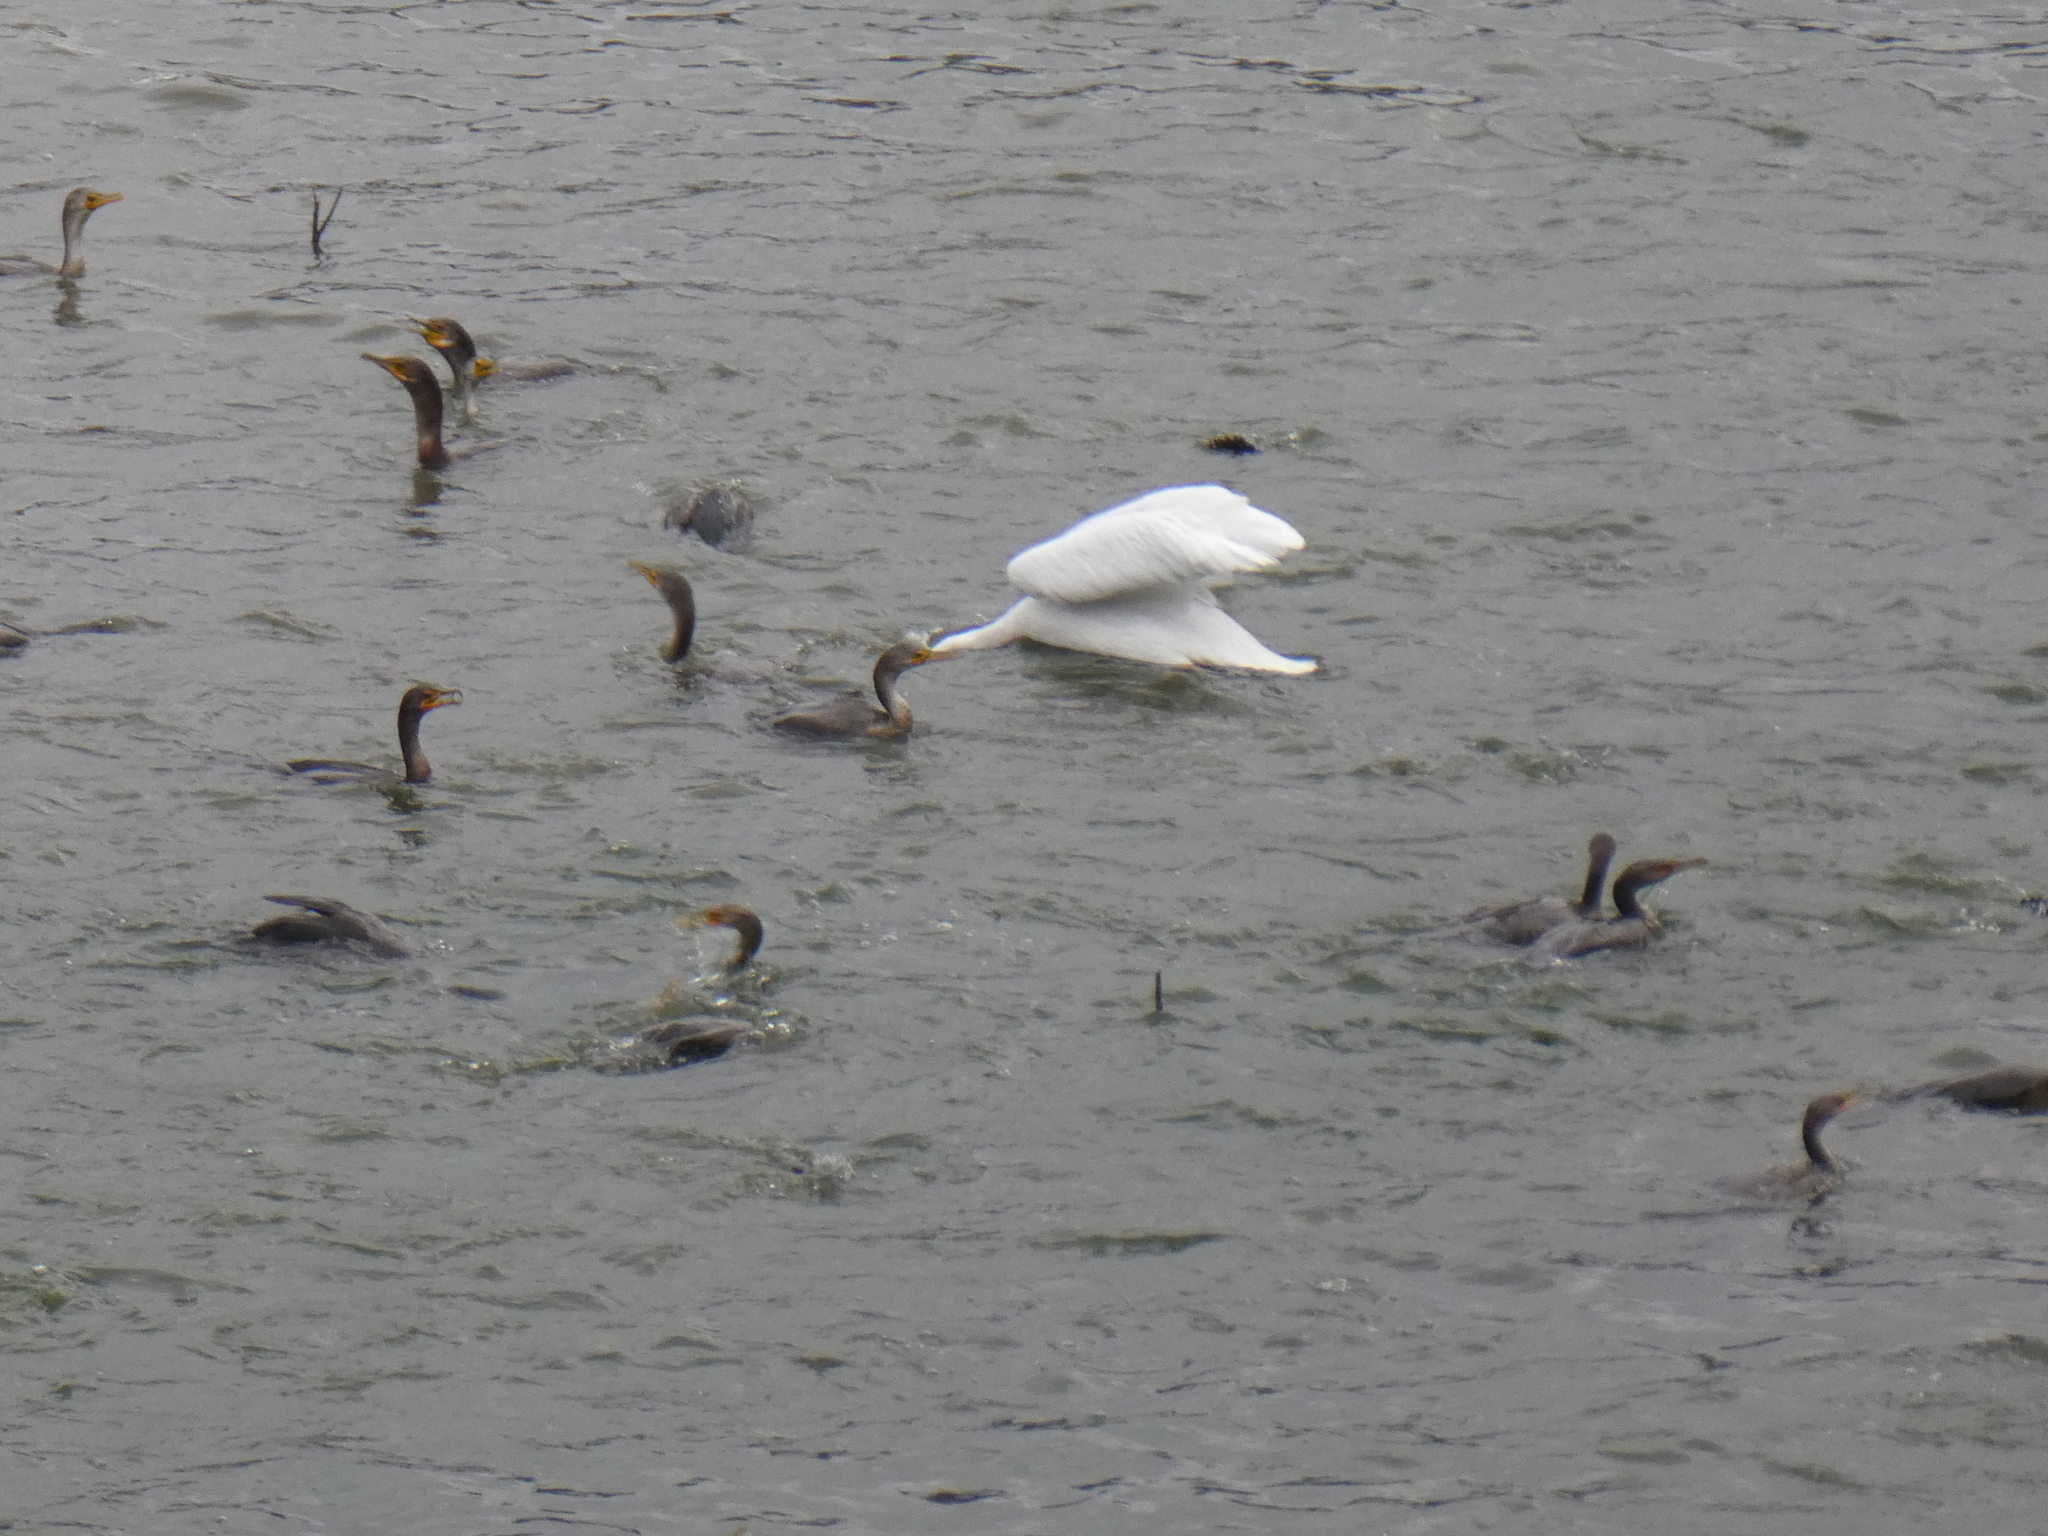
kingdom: Animalia
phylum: Chordata
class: Aves
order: Suliformes
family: Phalacrocoracidae
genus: Phalacrocorax
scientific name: Phalacrocorax auritus
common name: Double-crested cormorant
